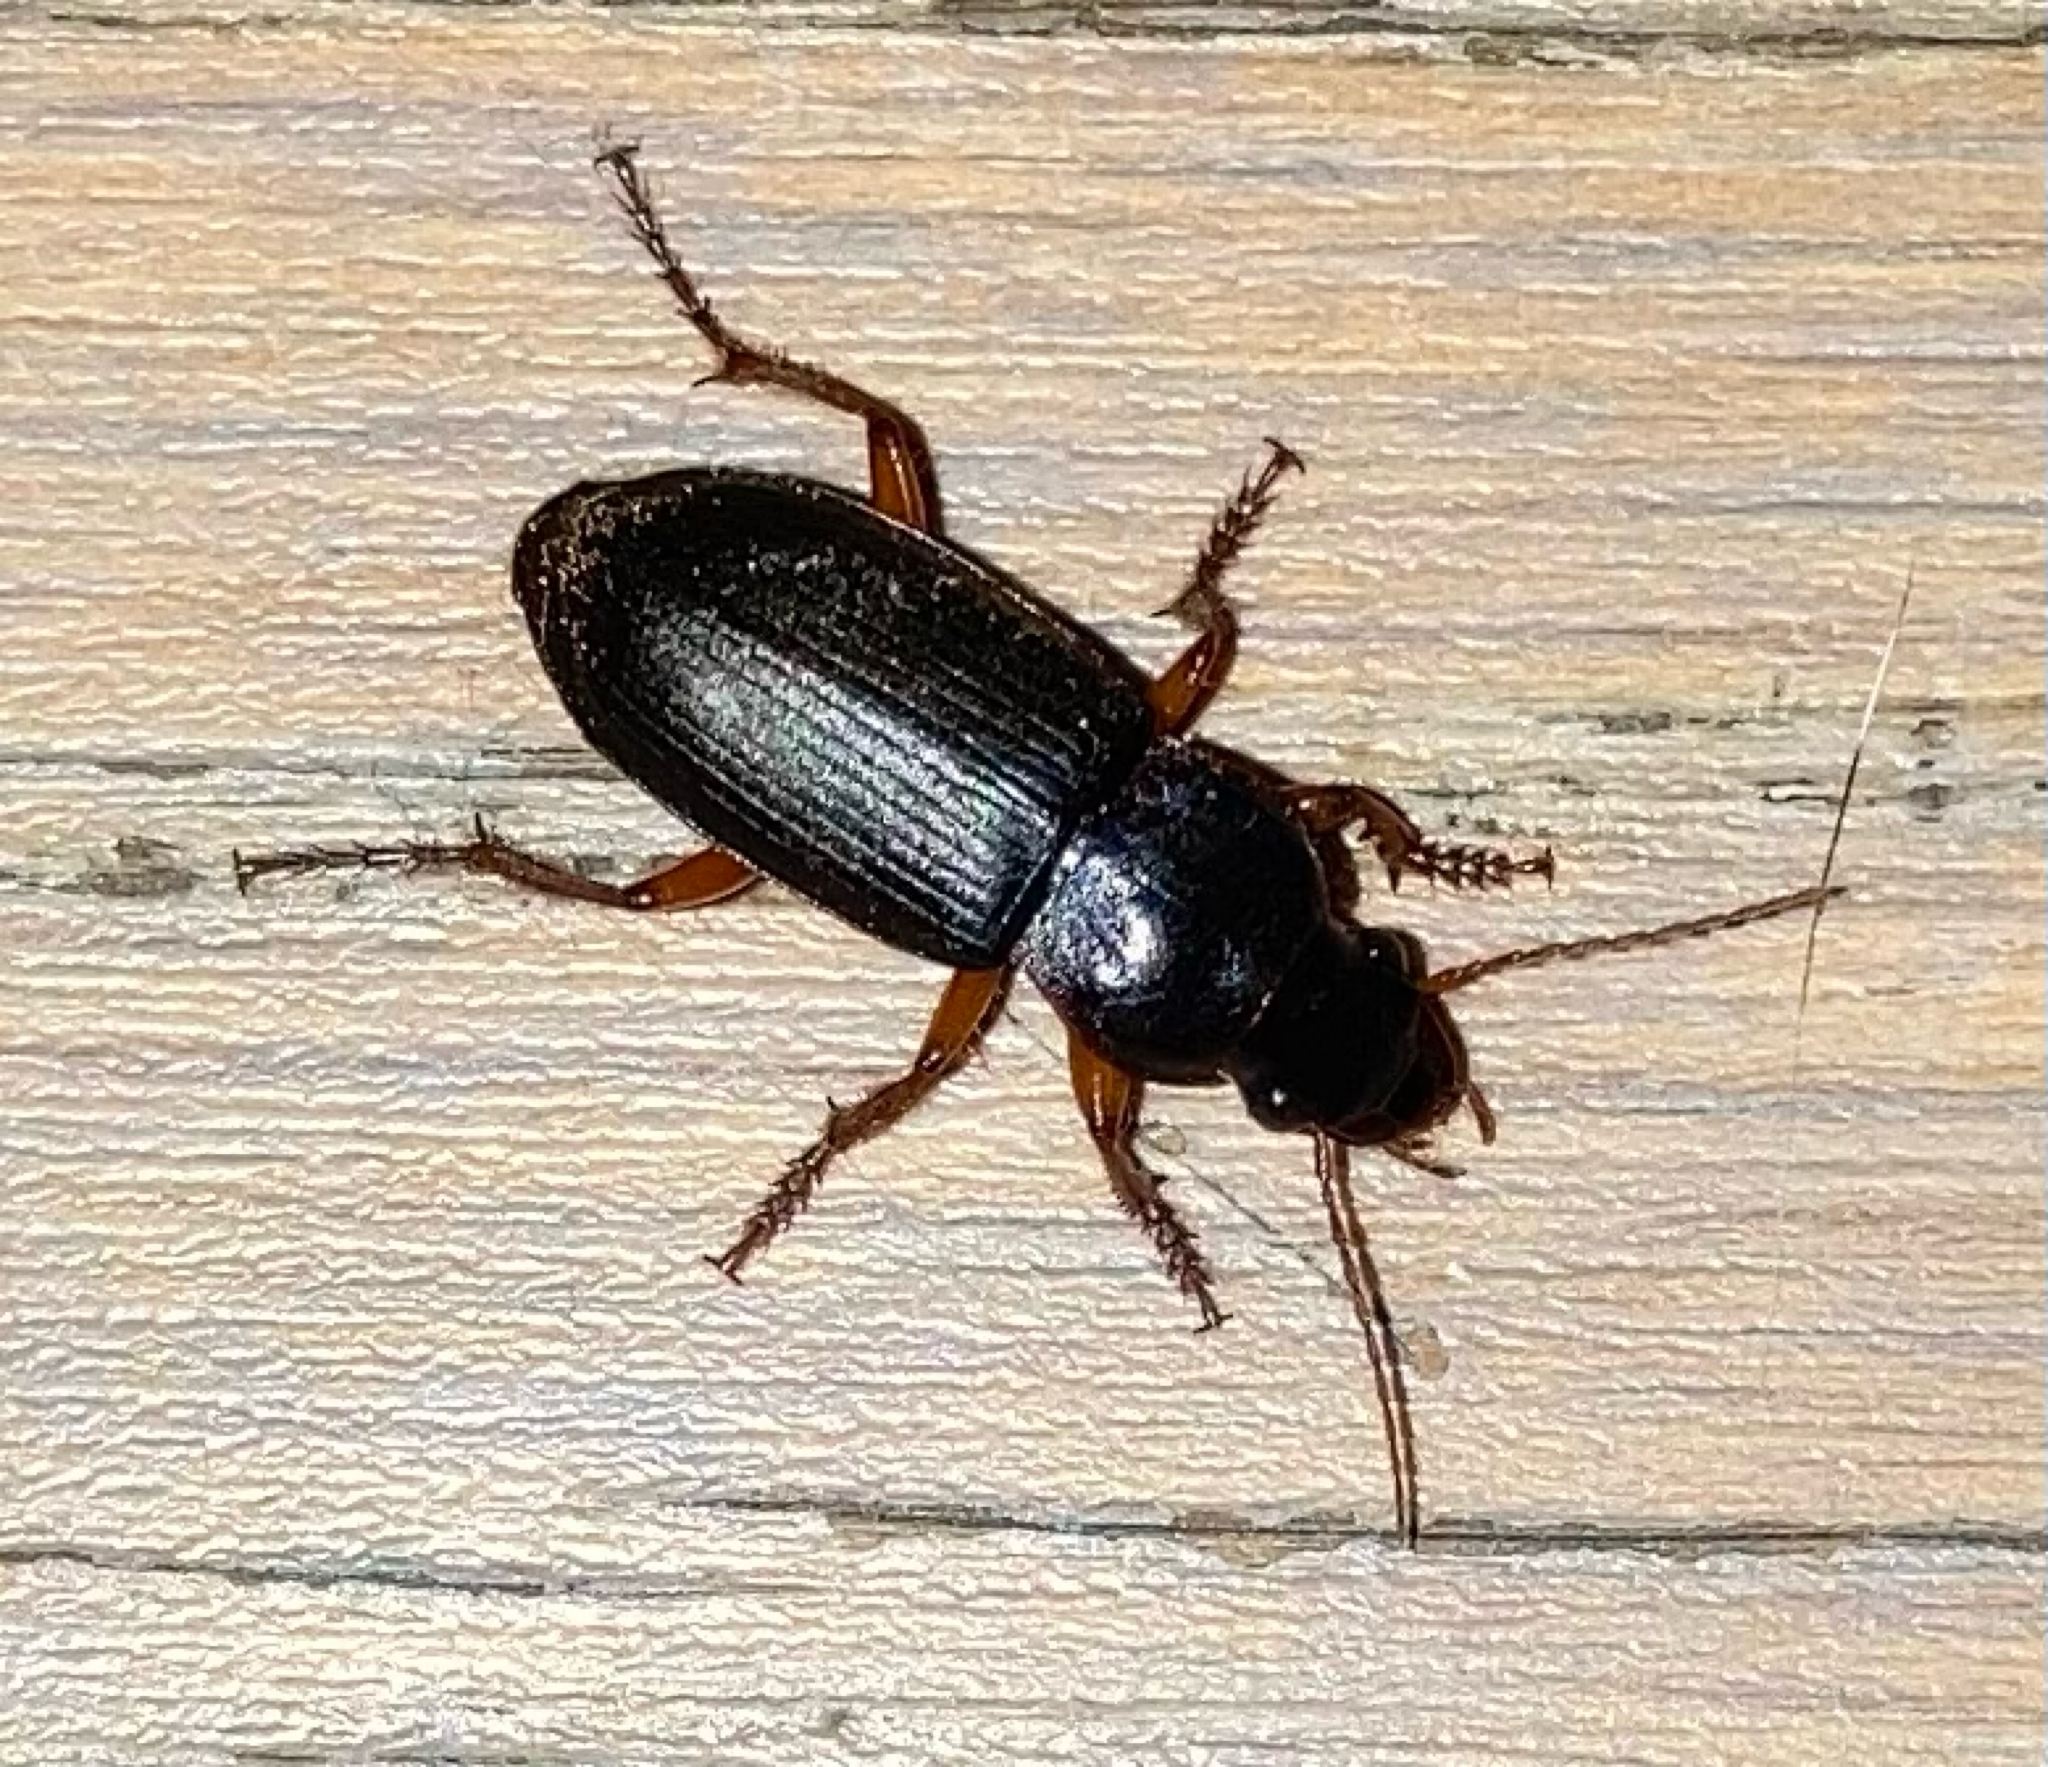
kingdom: Animalia
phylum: Arthropoda
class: Insecta
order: Coleoptera
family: Carabidae
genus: Harpalus
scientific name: Harpalus rufipes
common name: Strawberry harp ground beetle
